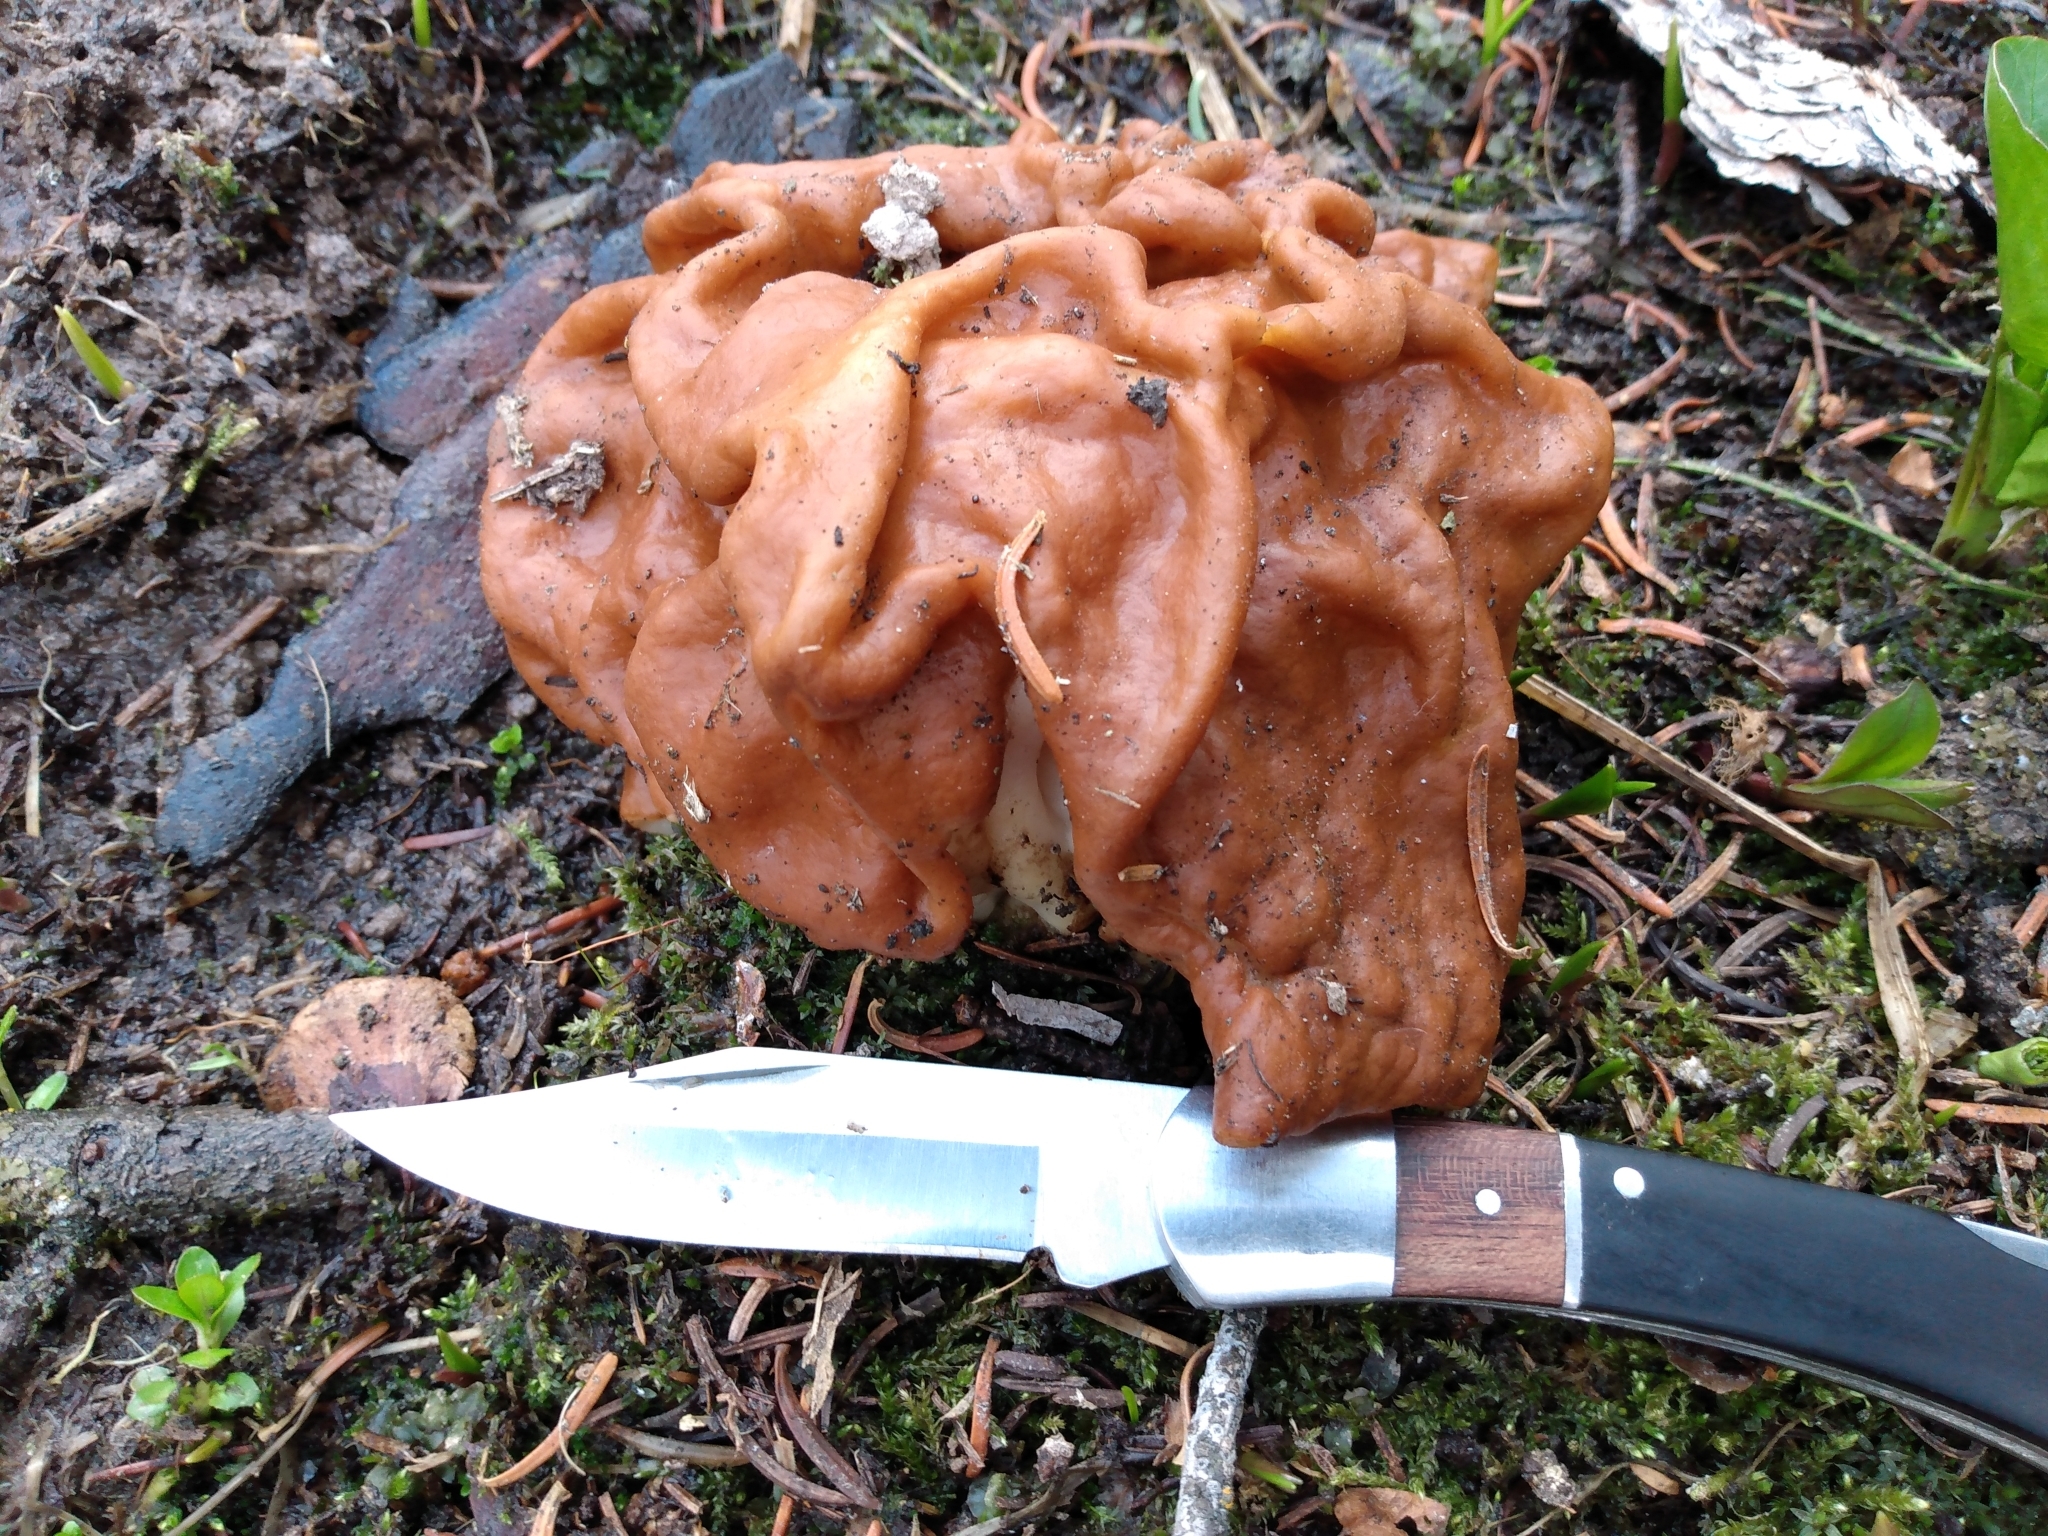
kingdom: Fungi
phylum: Ascomycota
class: Pezizomycetes
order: Pezizales
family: Discinaceae
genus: Discina
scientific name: Discina montana
